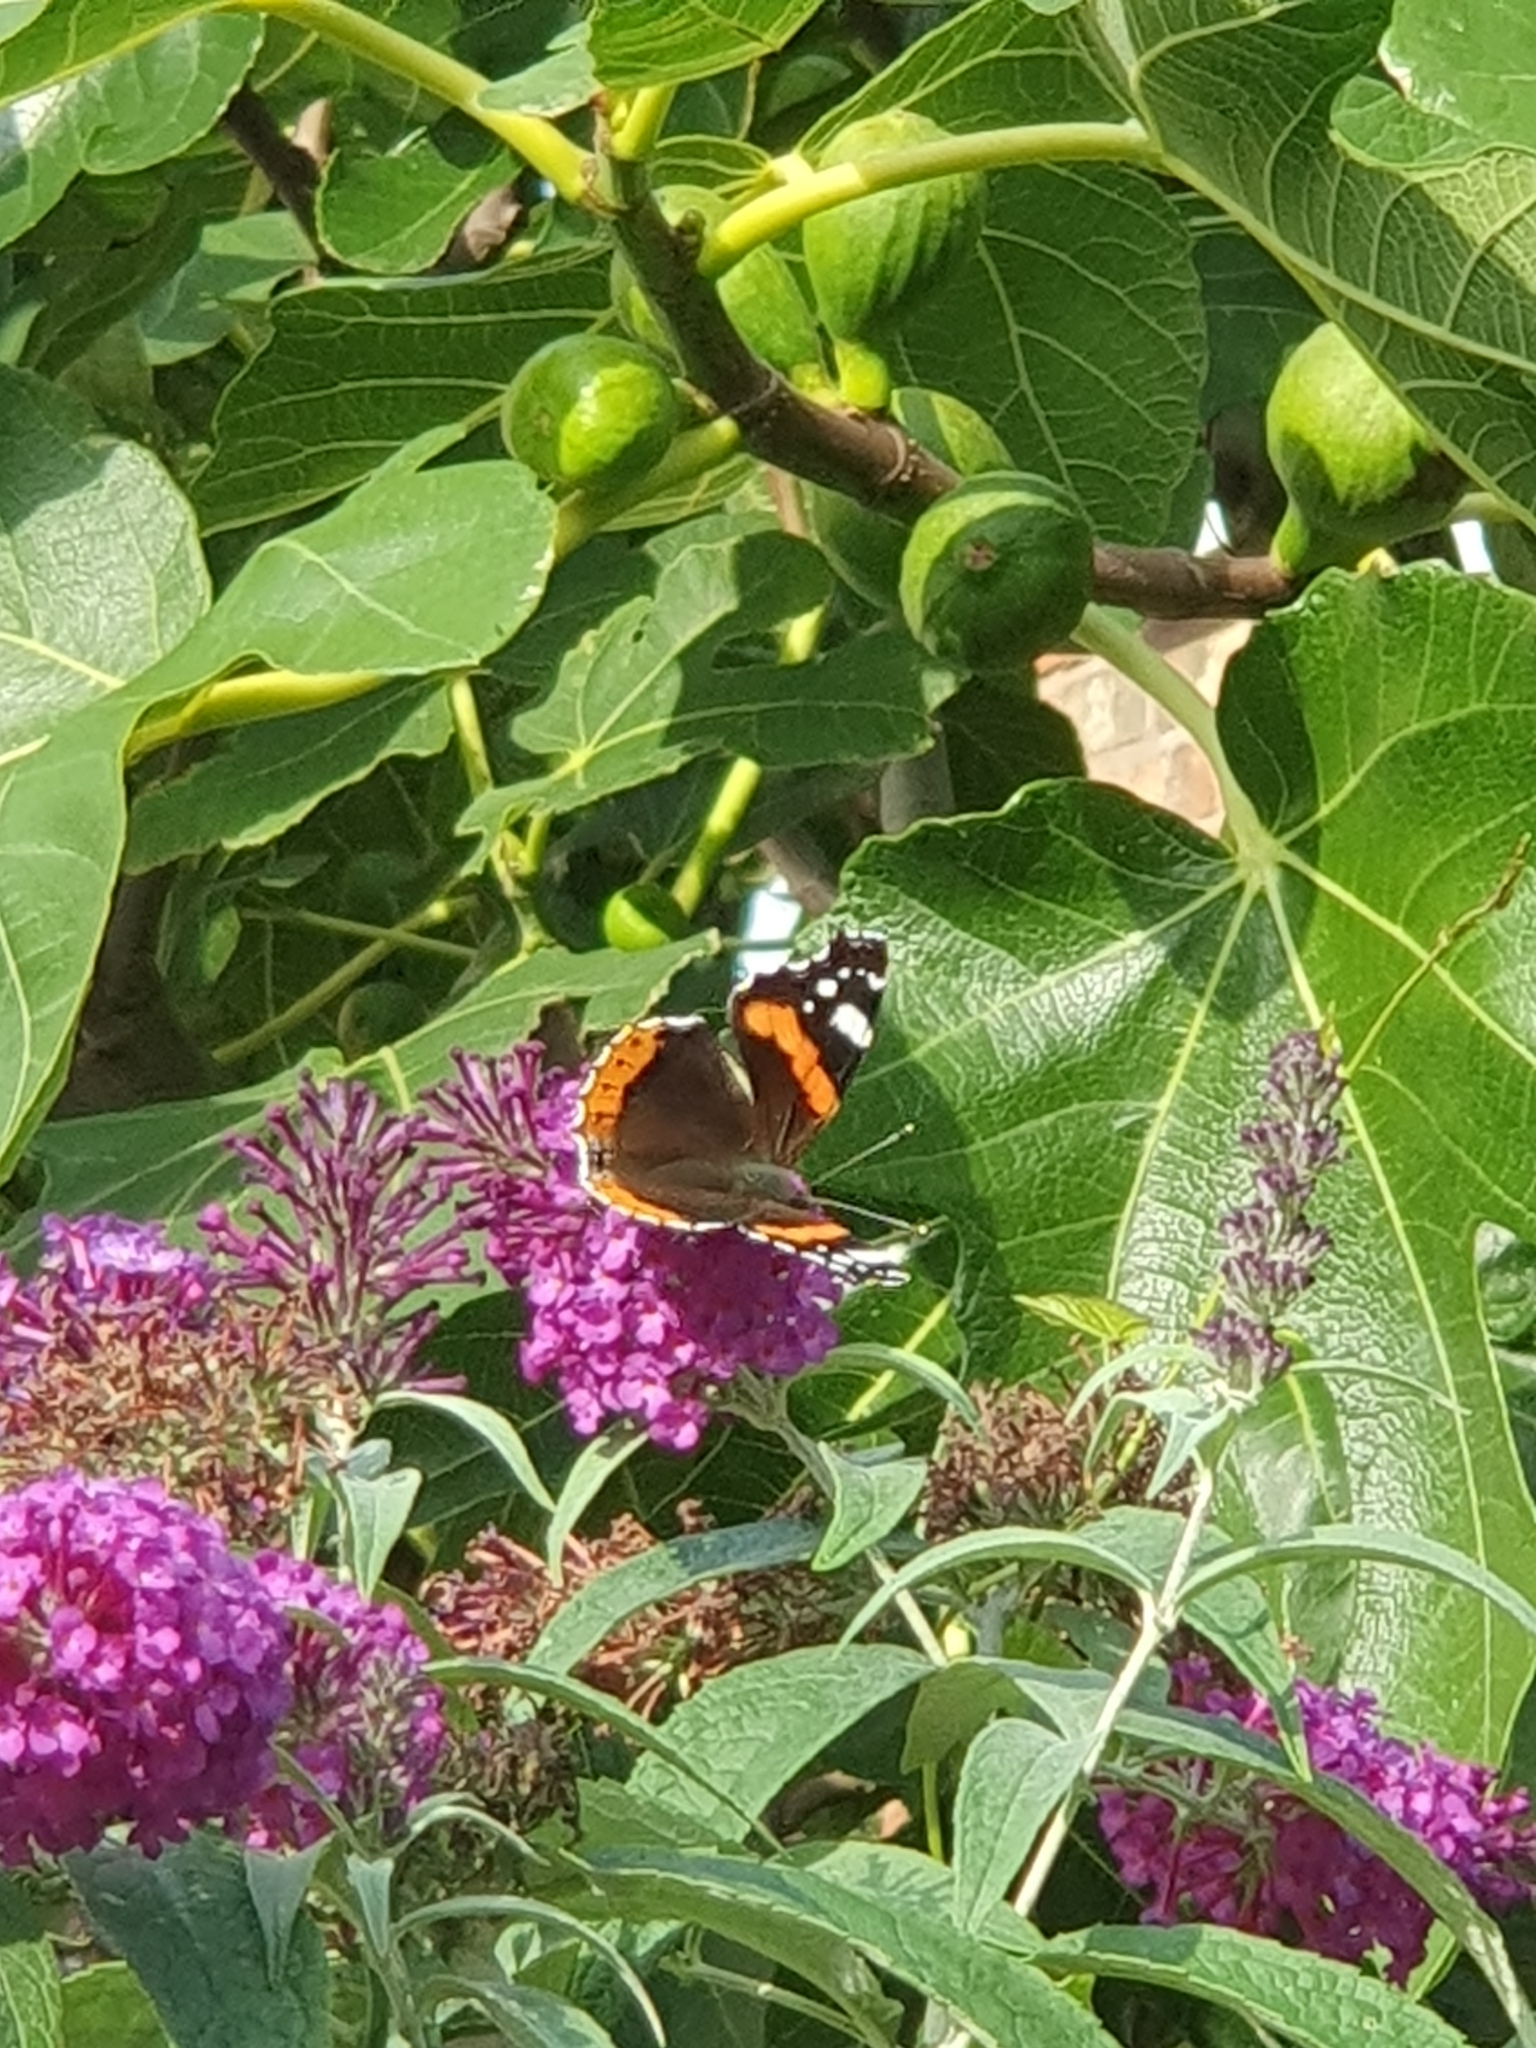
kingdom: Animalia
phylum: Arthropoda
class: Insecta
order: Lepidoptera
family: Nymphalidae
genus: Vanessa
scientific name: Vanessa atalanta
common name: Red admiral
